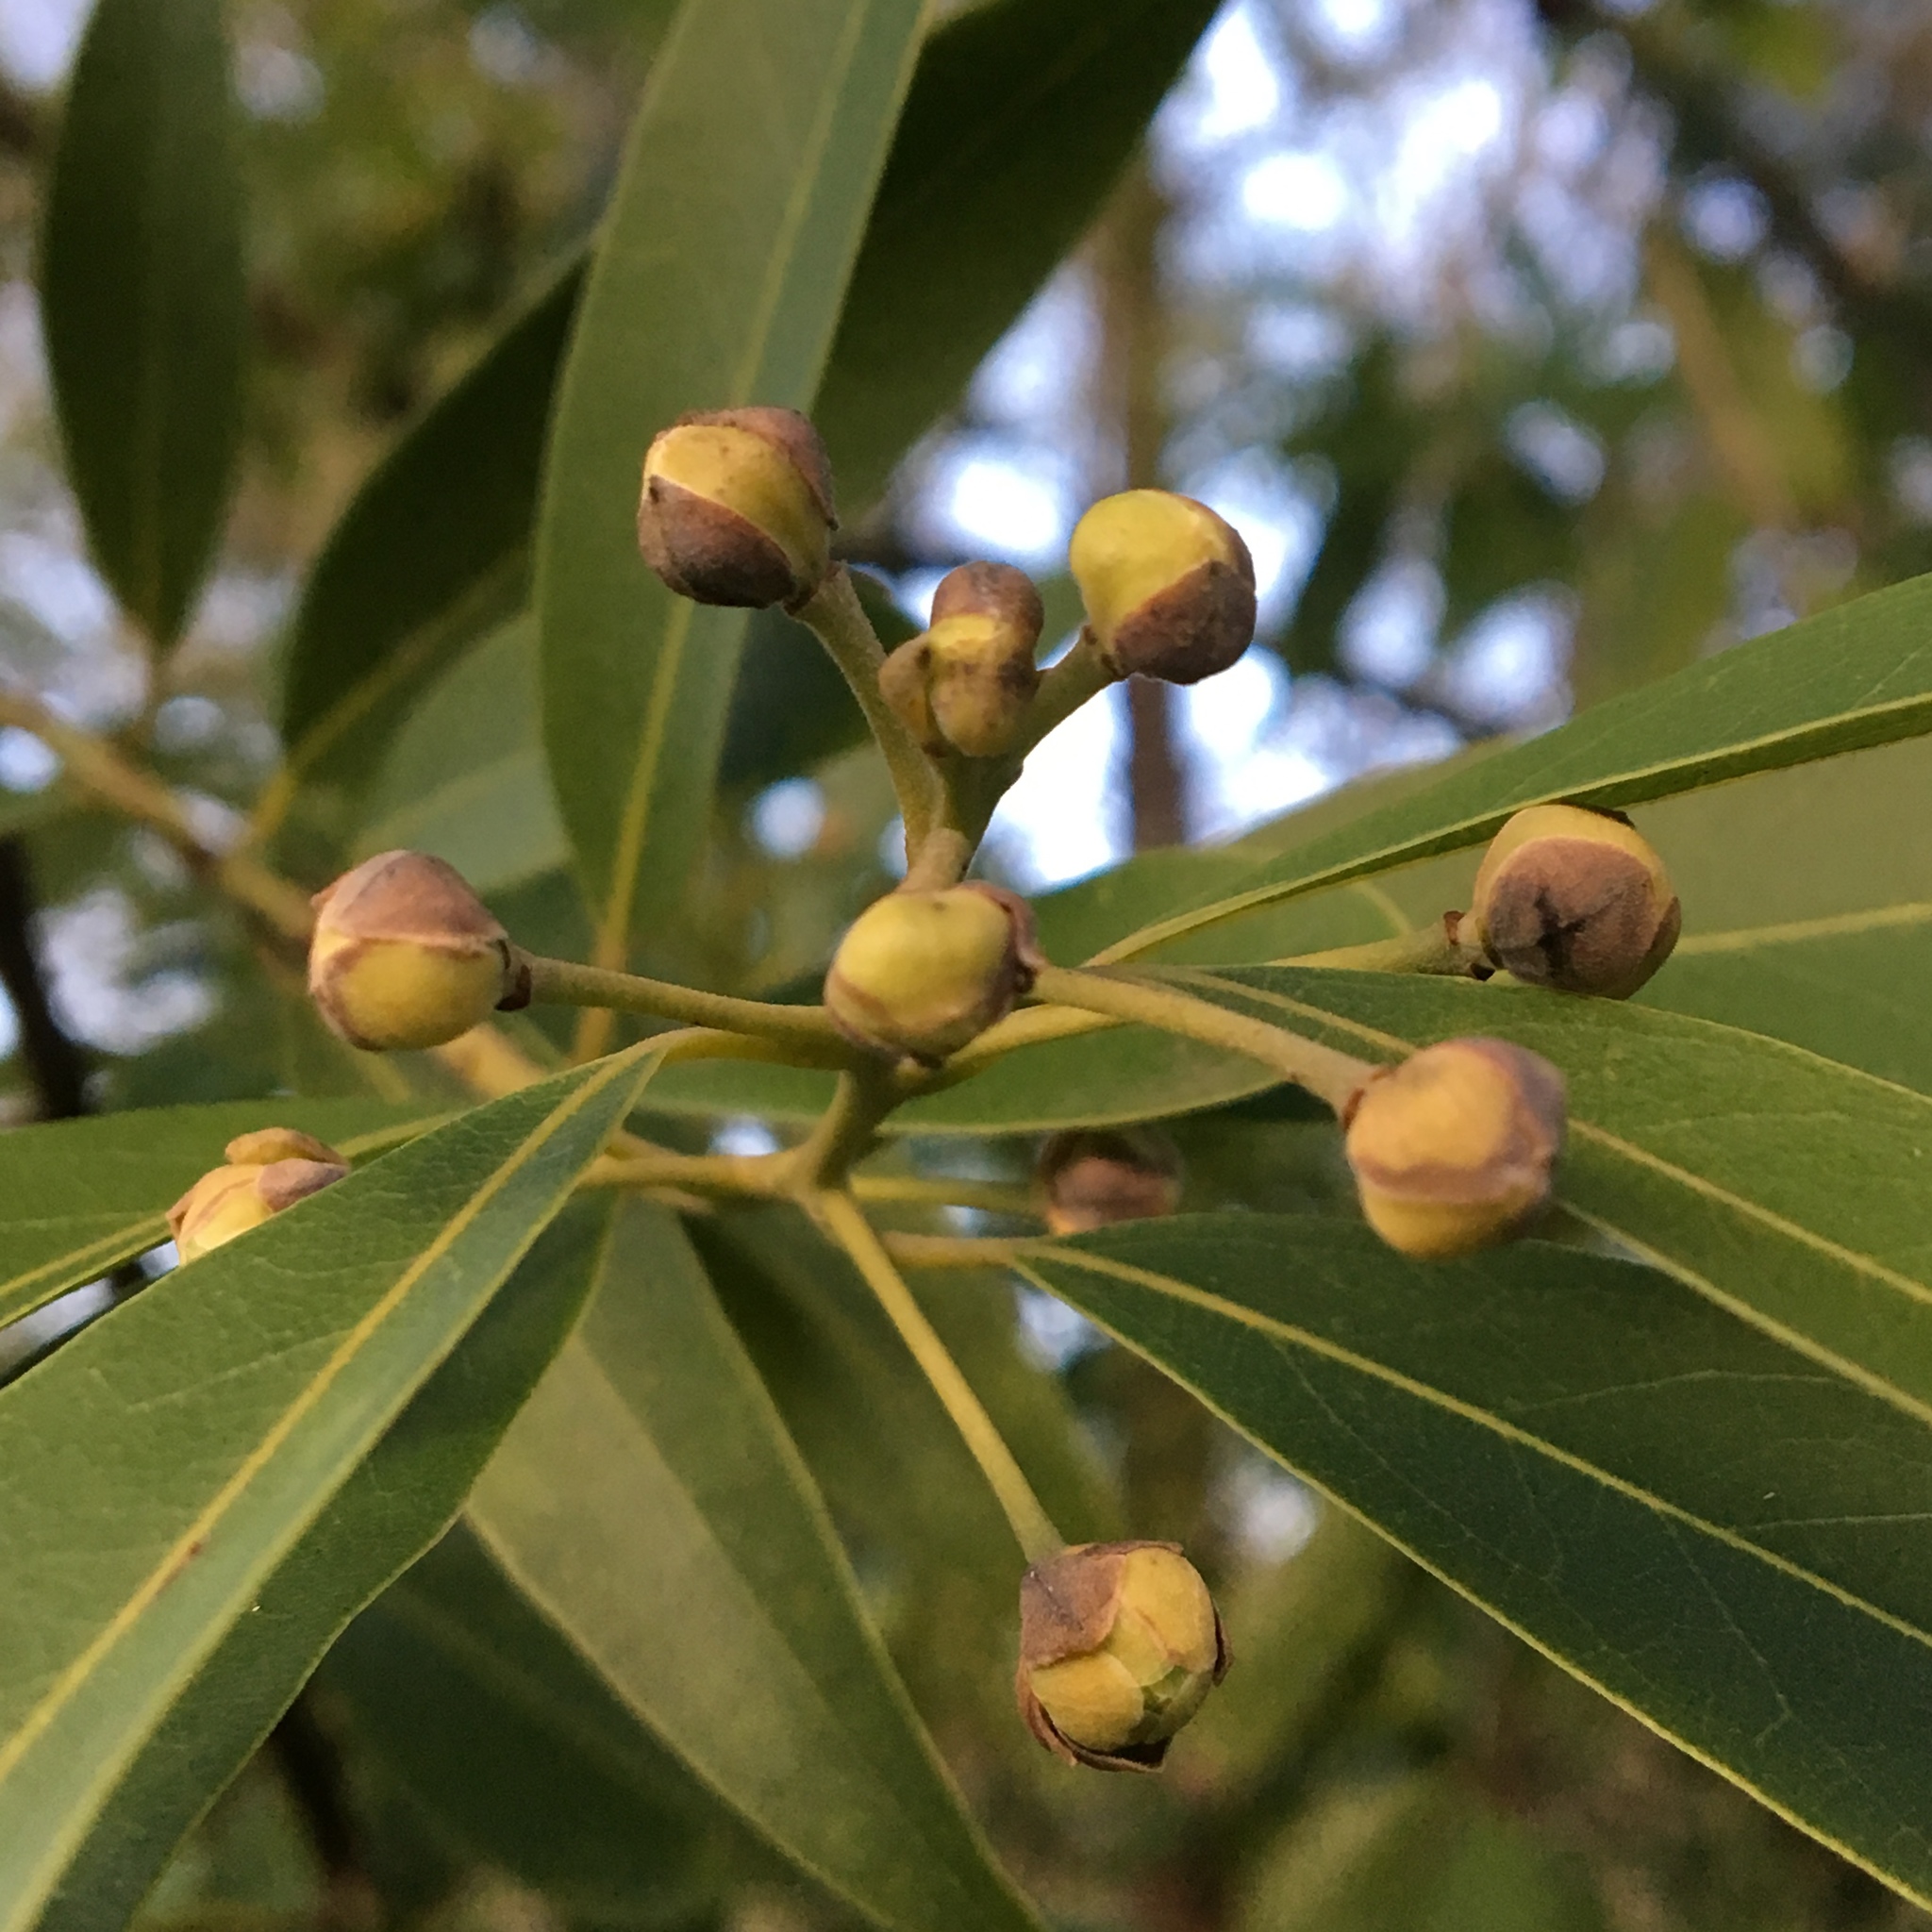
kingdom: Plantae
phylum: Tracheophyta
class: Magnoliopsida
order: Laurales
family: Lauraceae
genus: Umbellularia
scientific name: Umbellularia californica
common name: California bay
